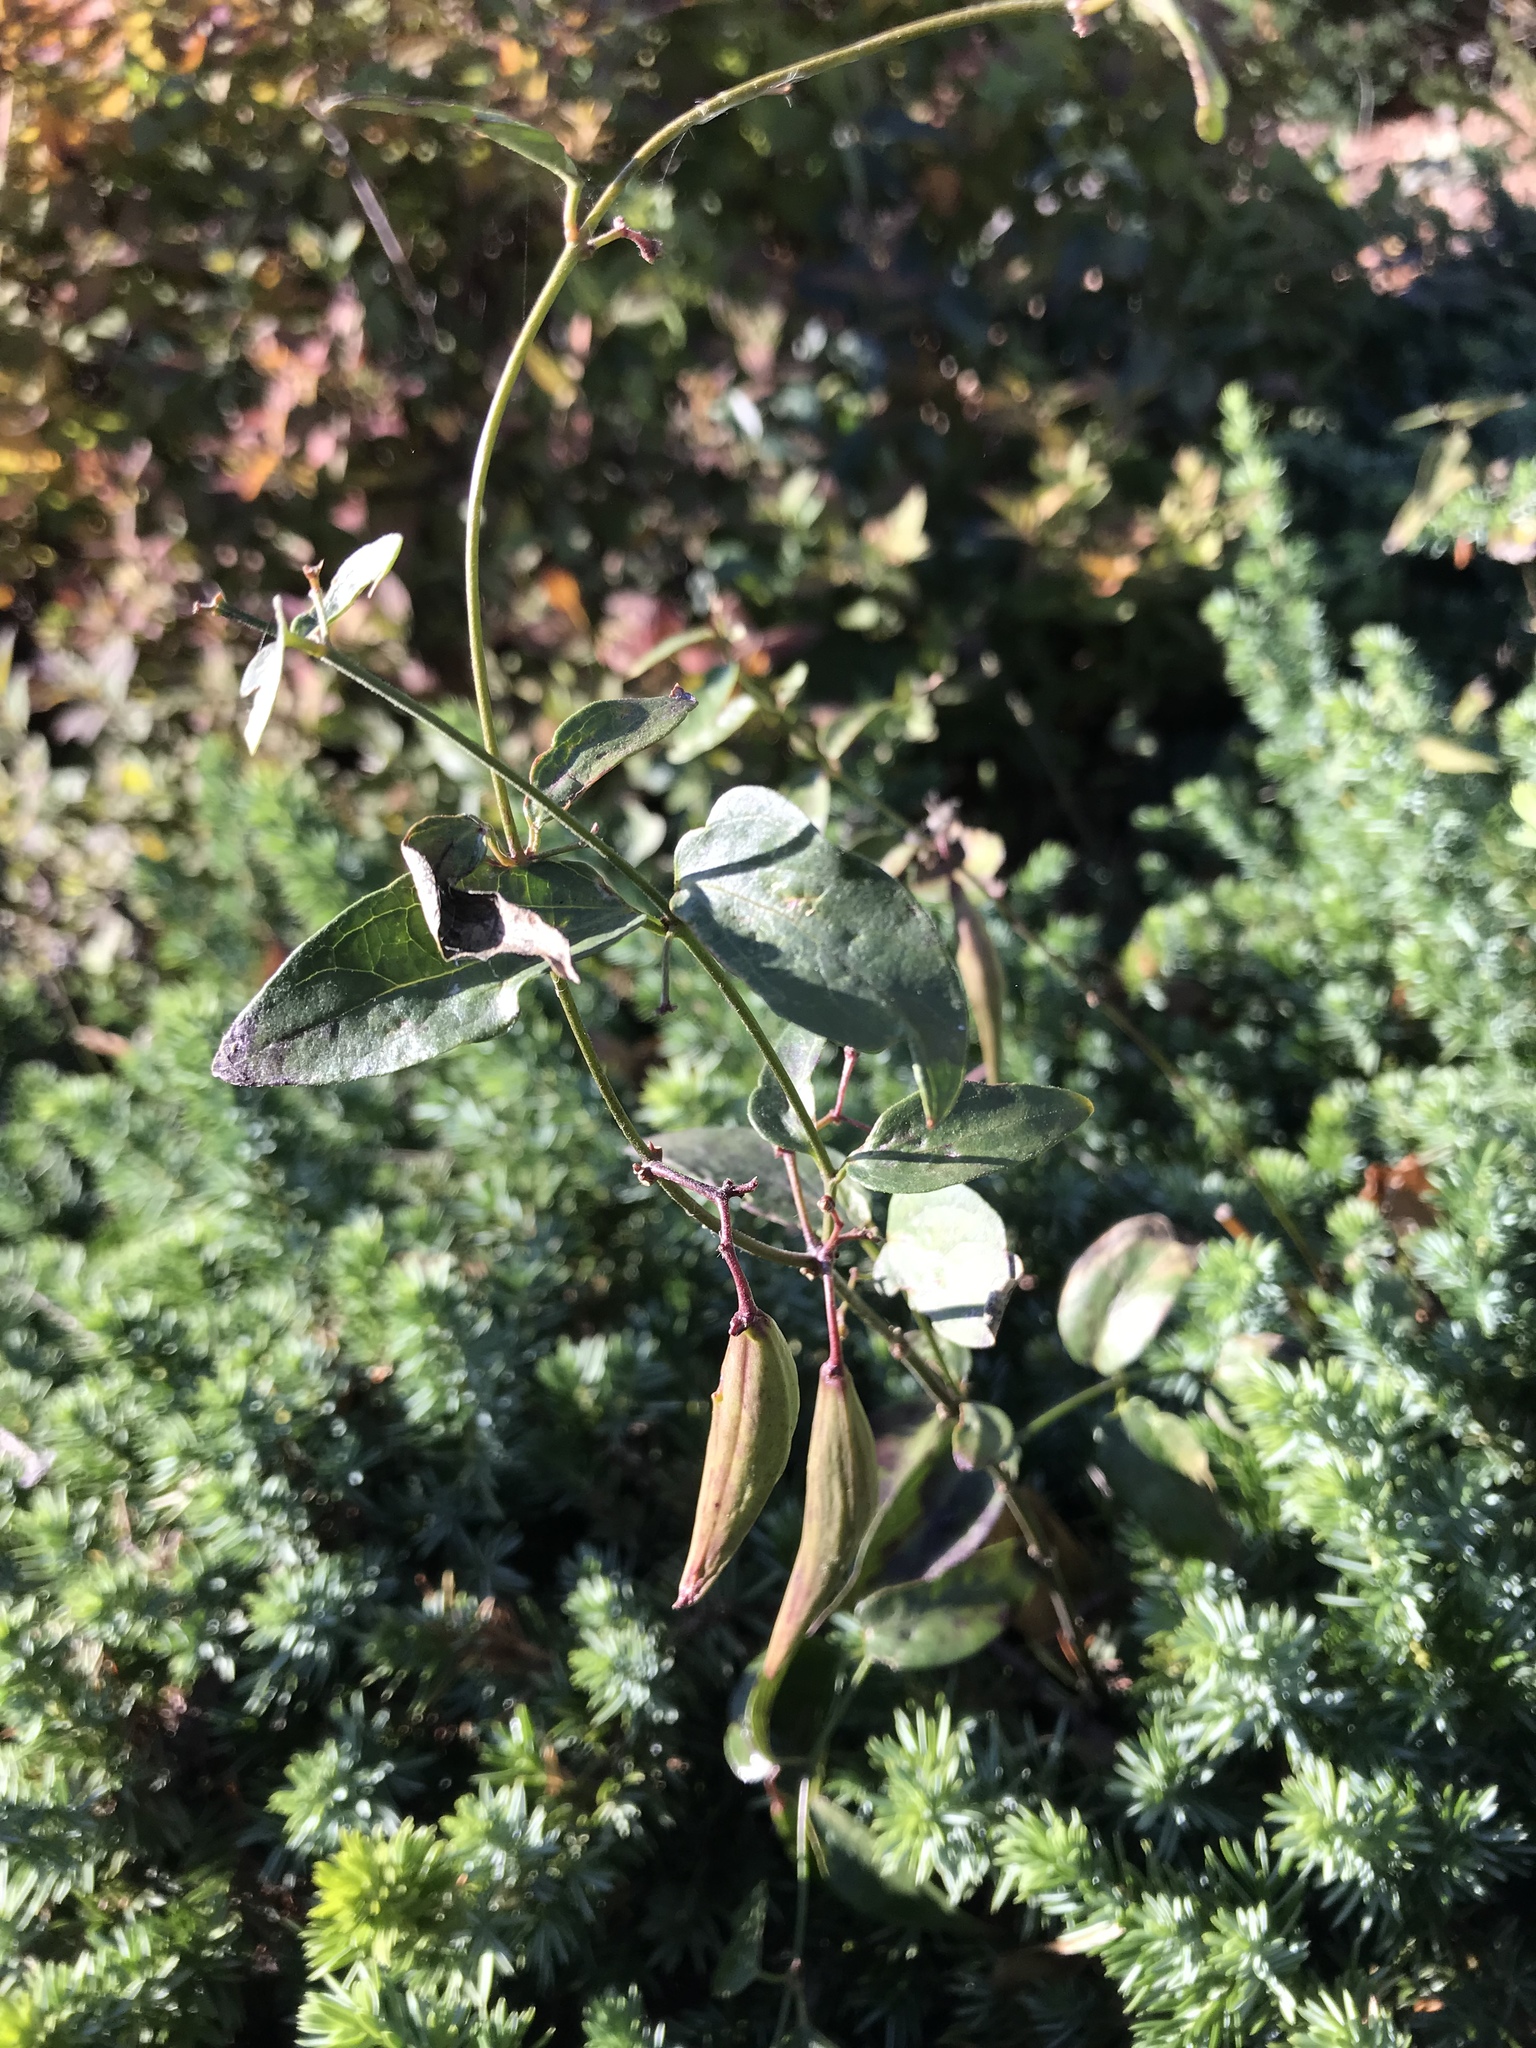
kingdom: Plantae
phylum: Tracheophyta
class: Magnoliopsida
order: Gentianales
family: Apocynaceae
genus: Vincetoxicum
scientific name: Vincetoxicum nigrum
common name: Black swallow-wort
